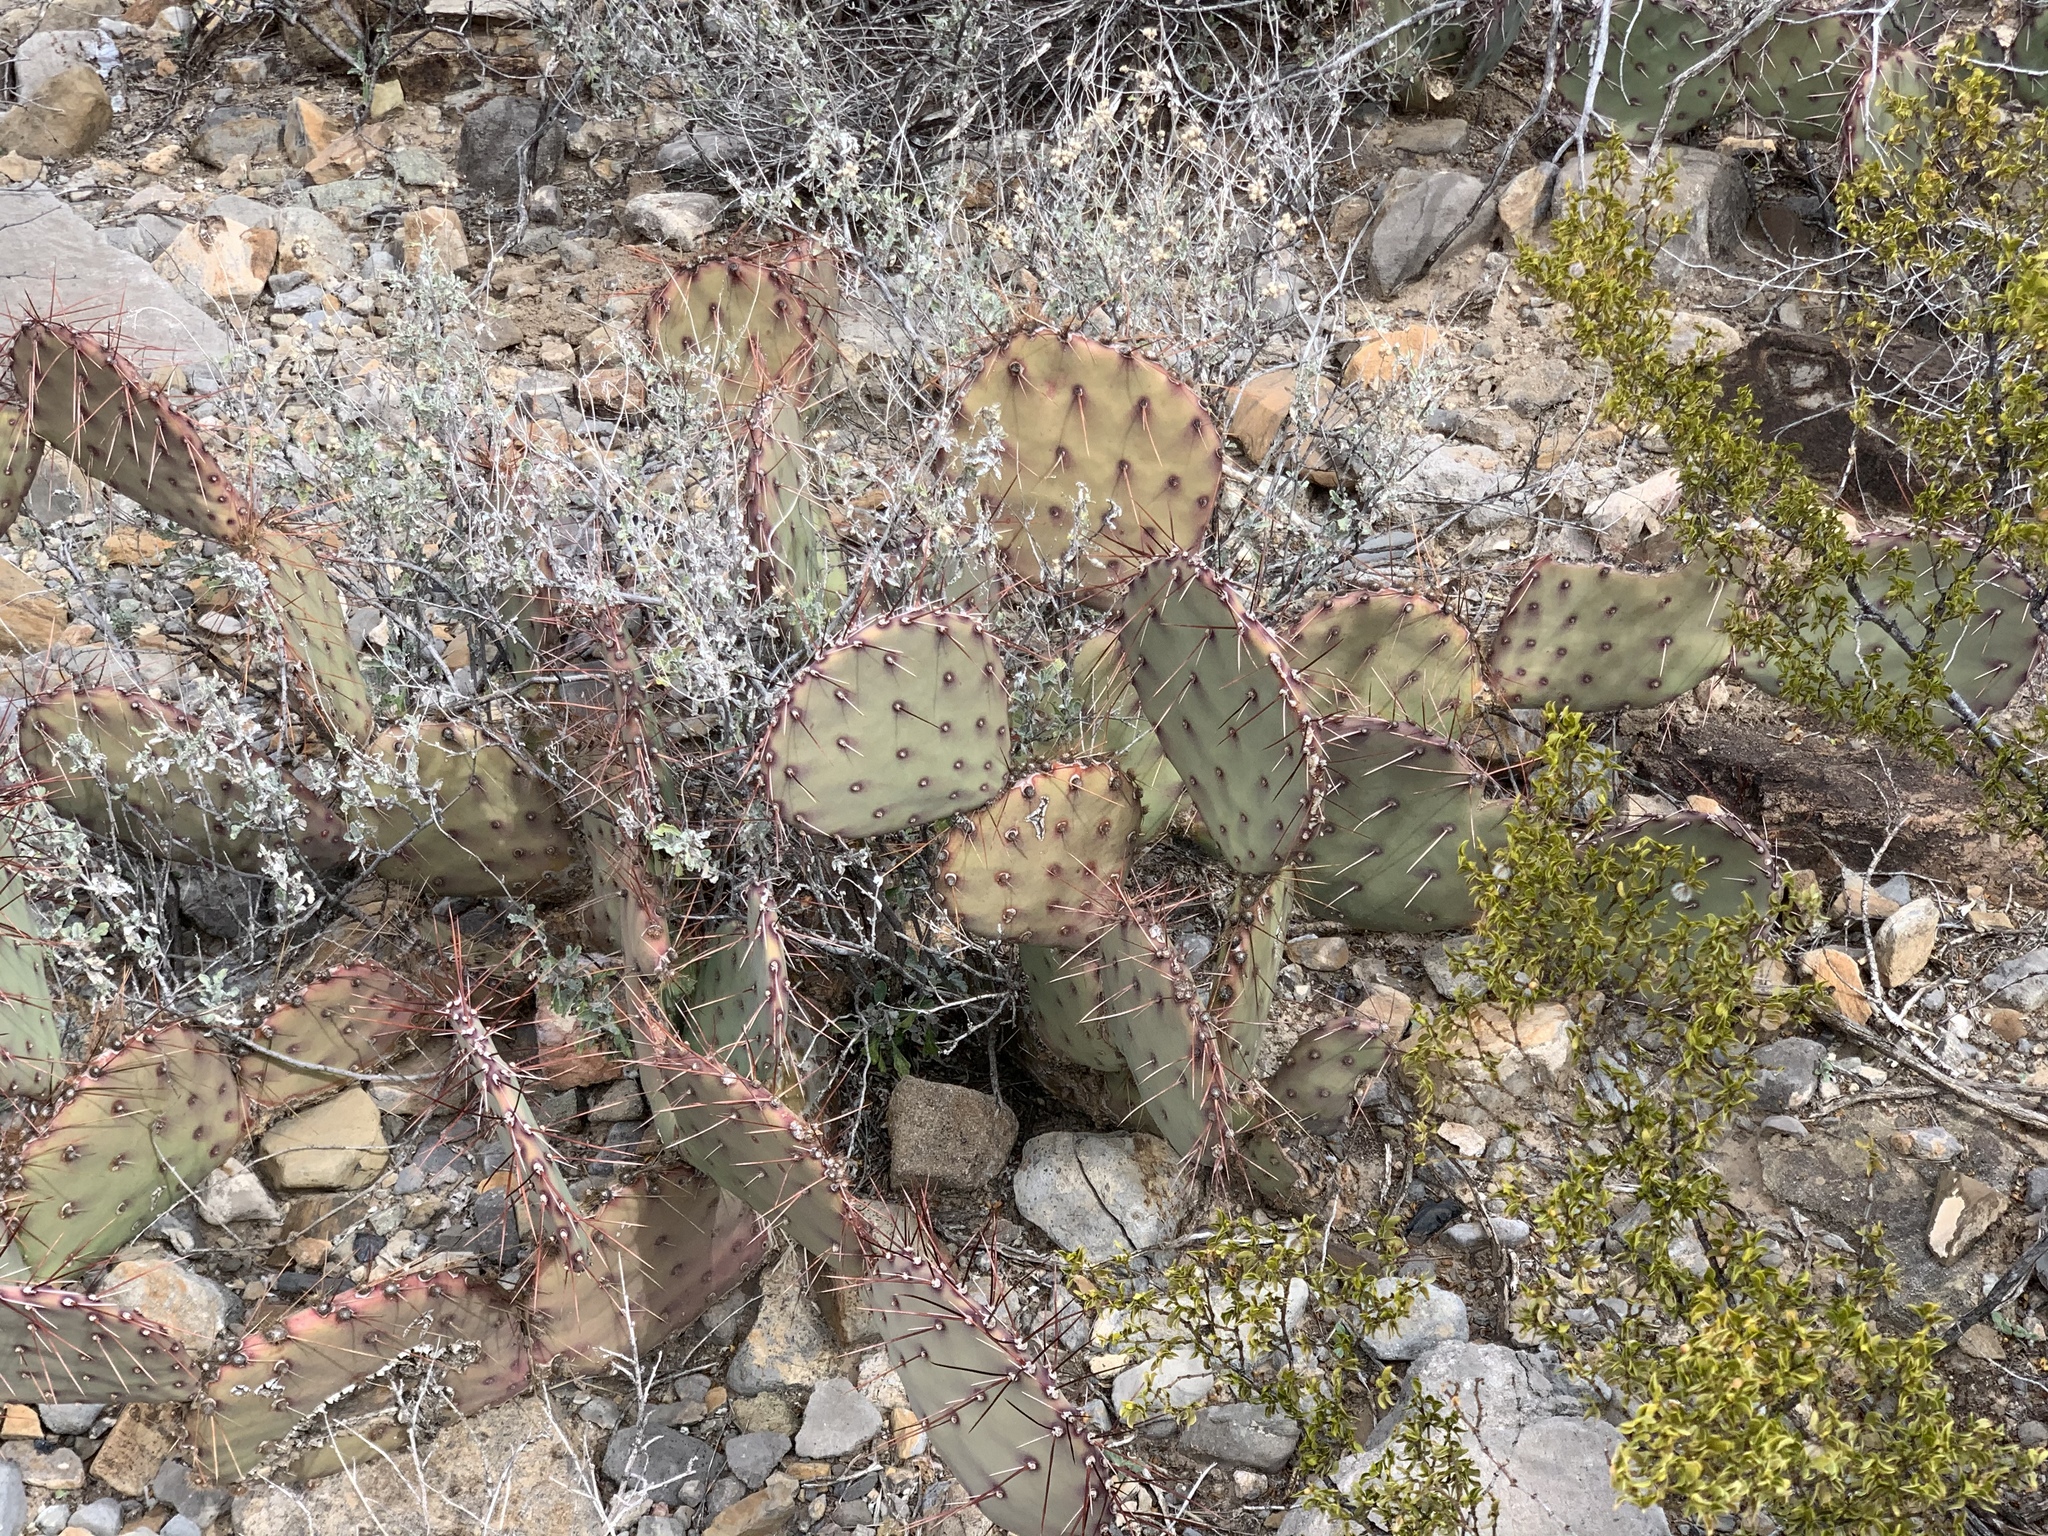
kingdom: Plantae
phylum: Tracheophyta
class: Magnoliopsida
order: Caryophyllales
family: Cactaceae
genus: Opuntia
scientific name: Opuntia macrocentra
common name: Purple prickly-pear
